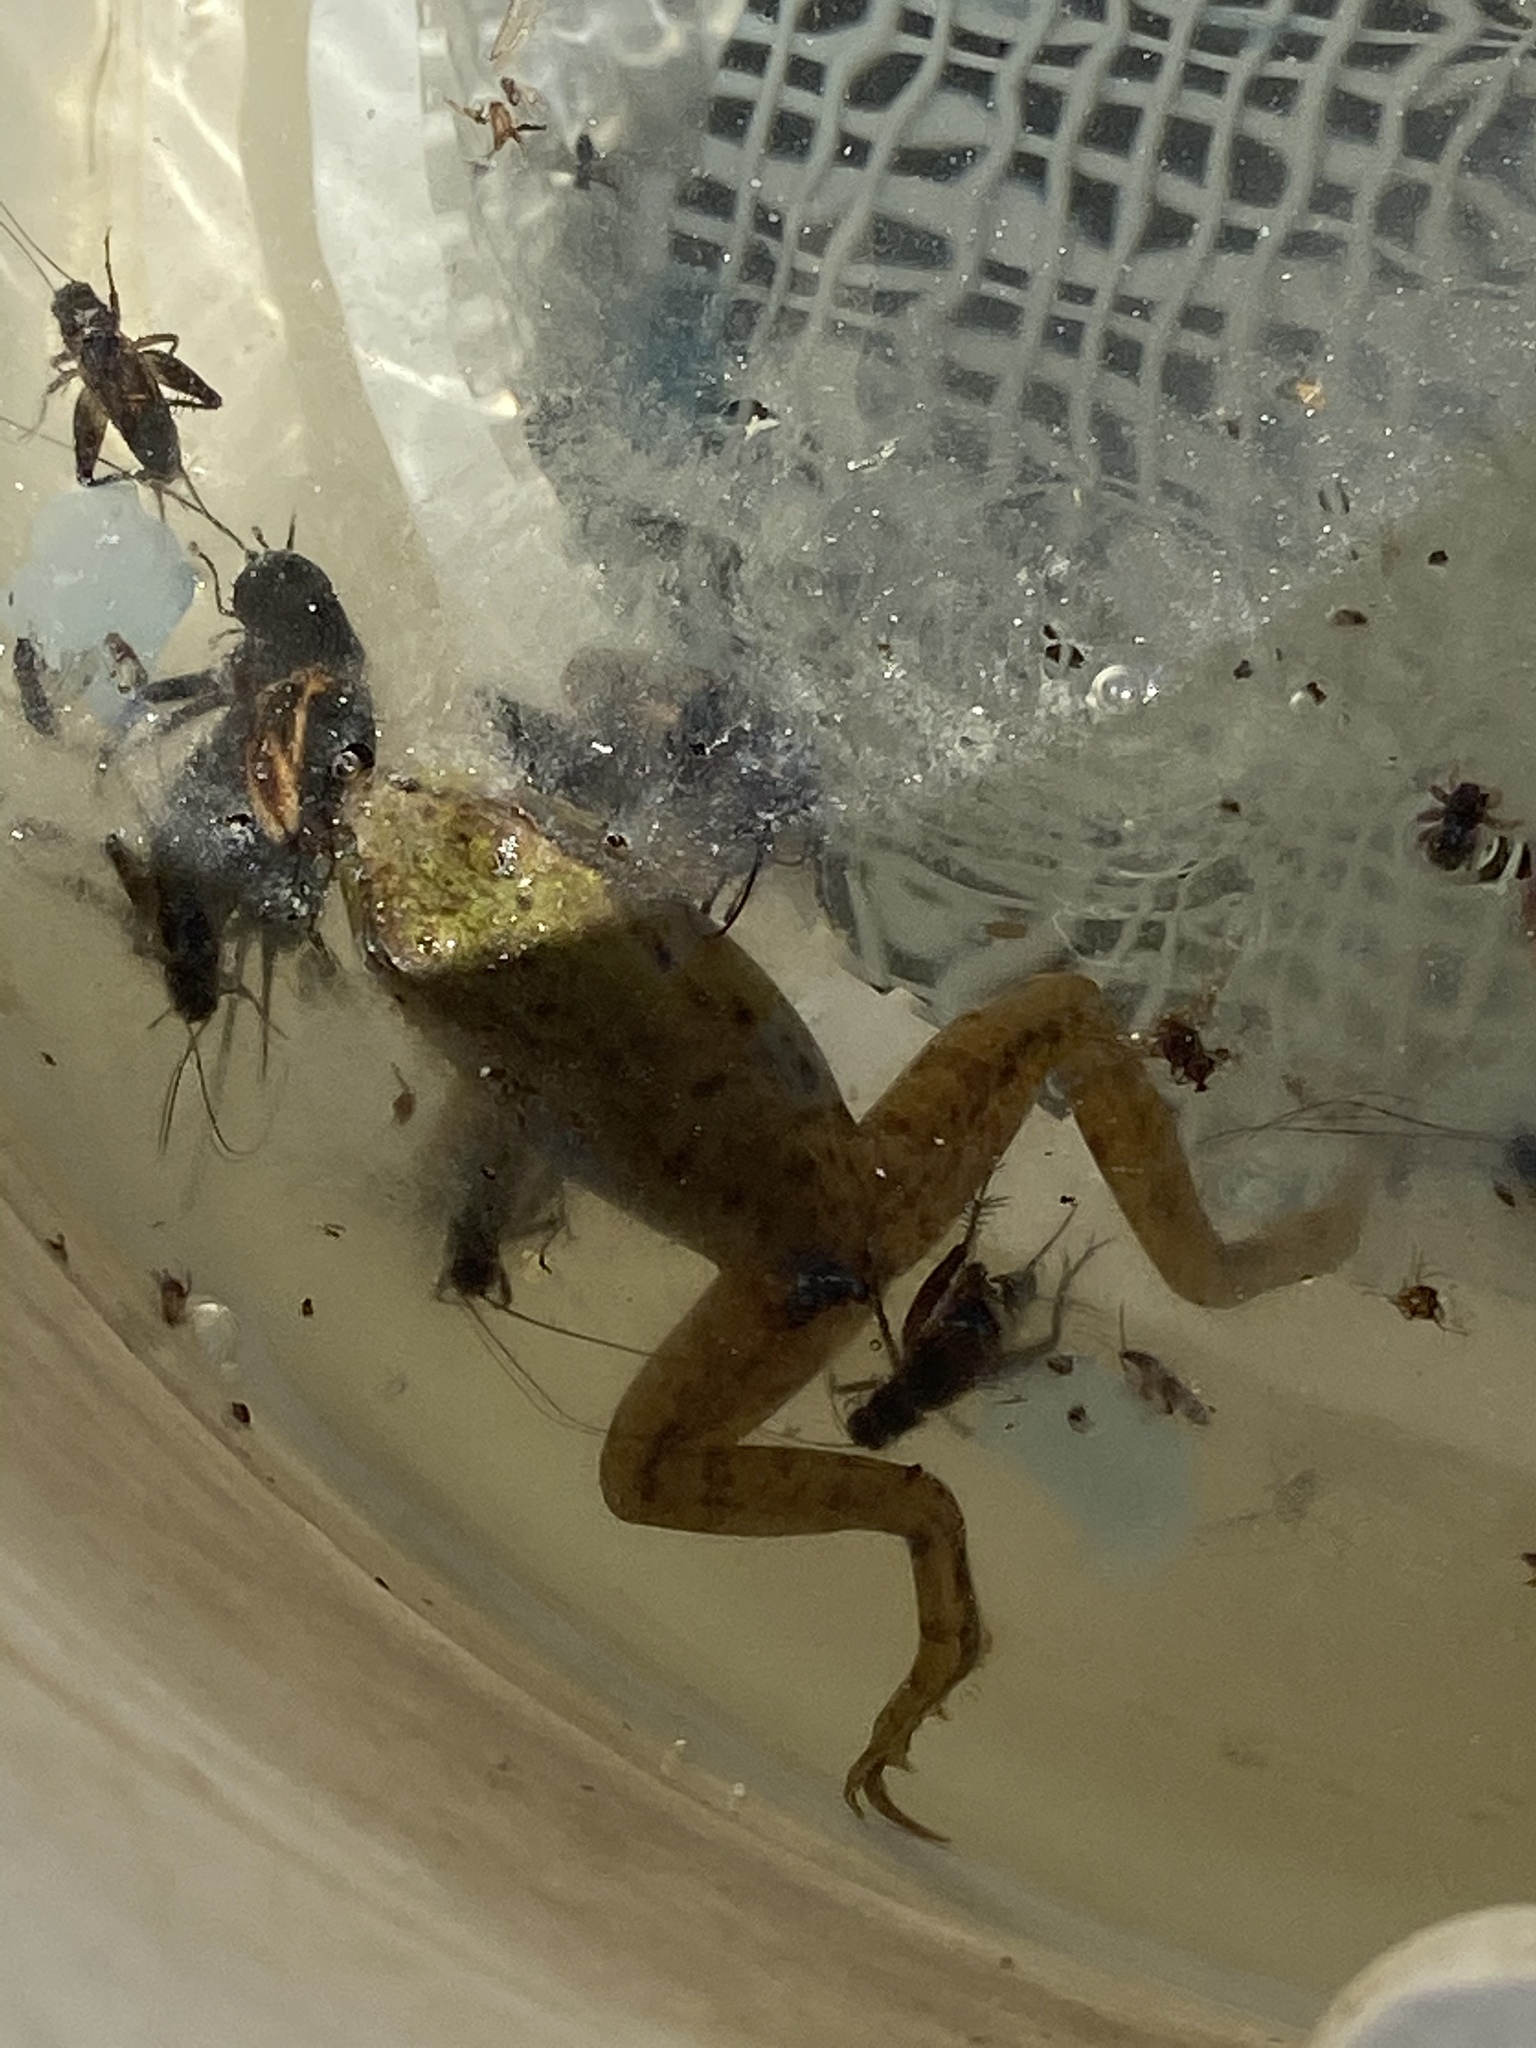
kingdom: Animalia
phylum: Chordata
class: Amphibia
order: Anura
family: Ranidae
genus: Lithobates
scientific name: Lithobates
